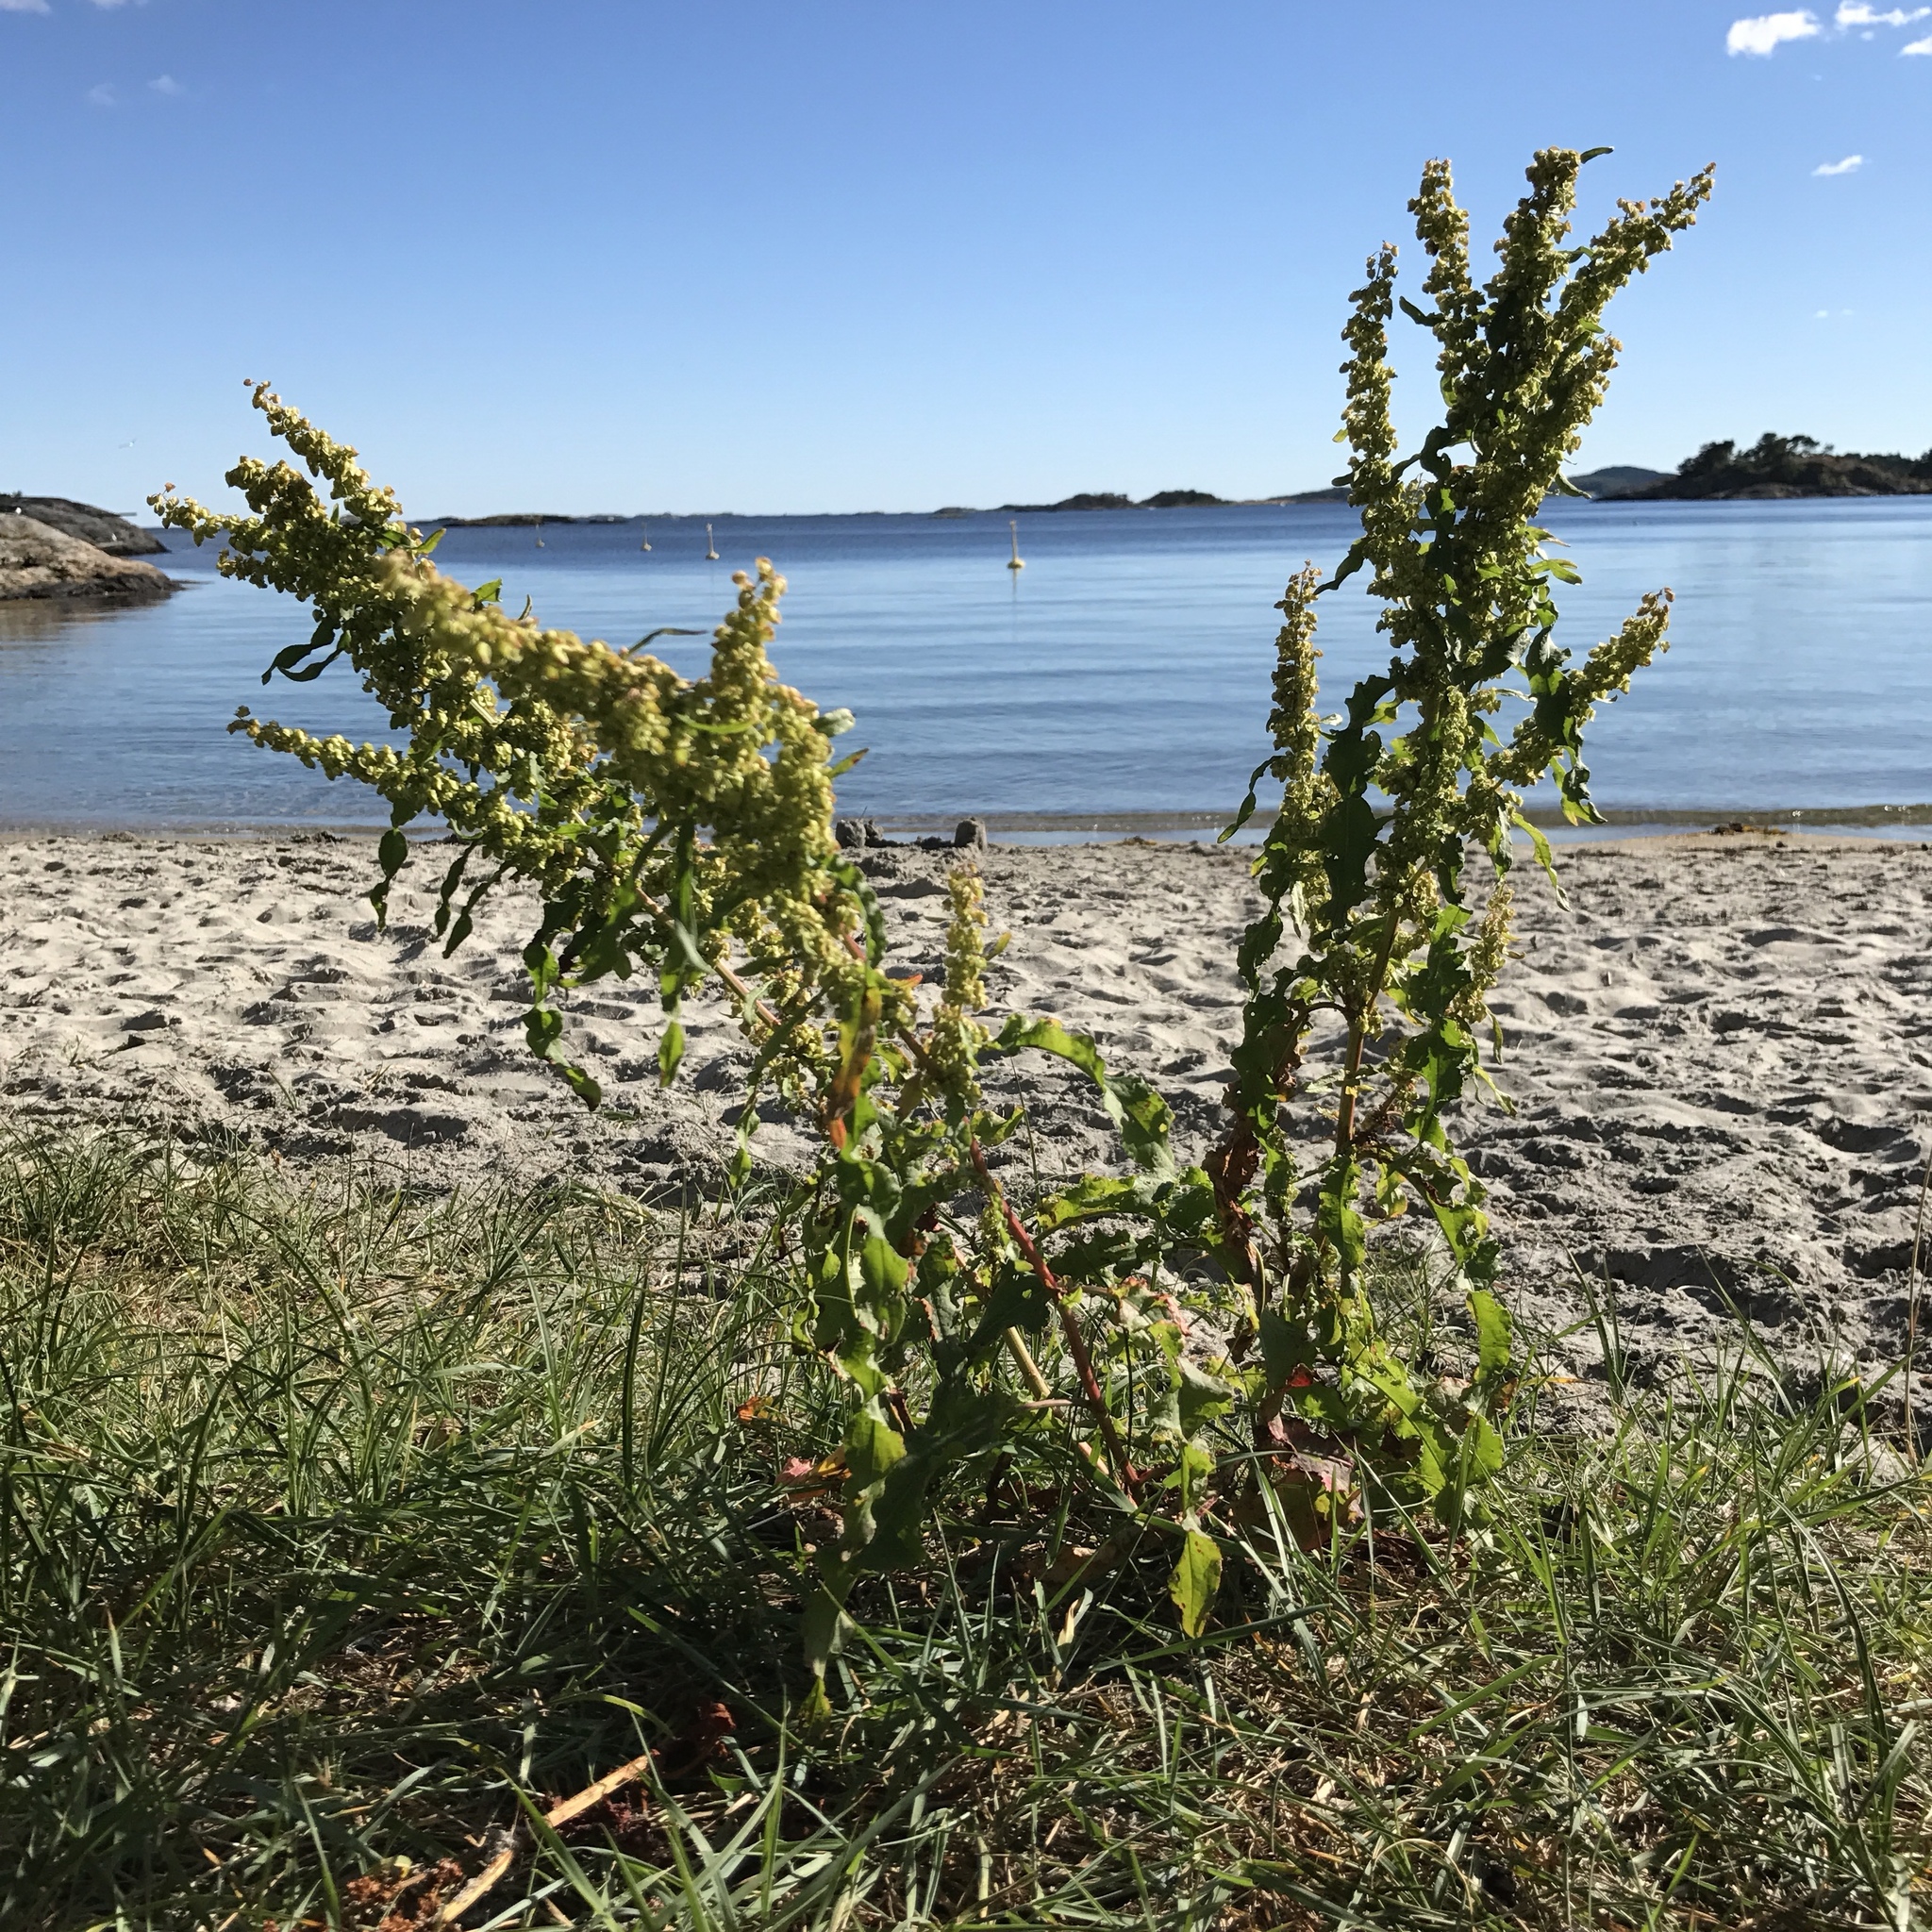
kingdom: Plantae
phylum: Tracheophyta
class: Magnoliopsida
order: Caryophyllales
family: Polygonaceae
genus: Rumex
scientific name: Rumex crispus
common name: Curled dock
